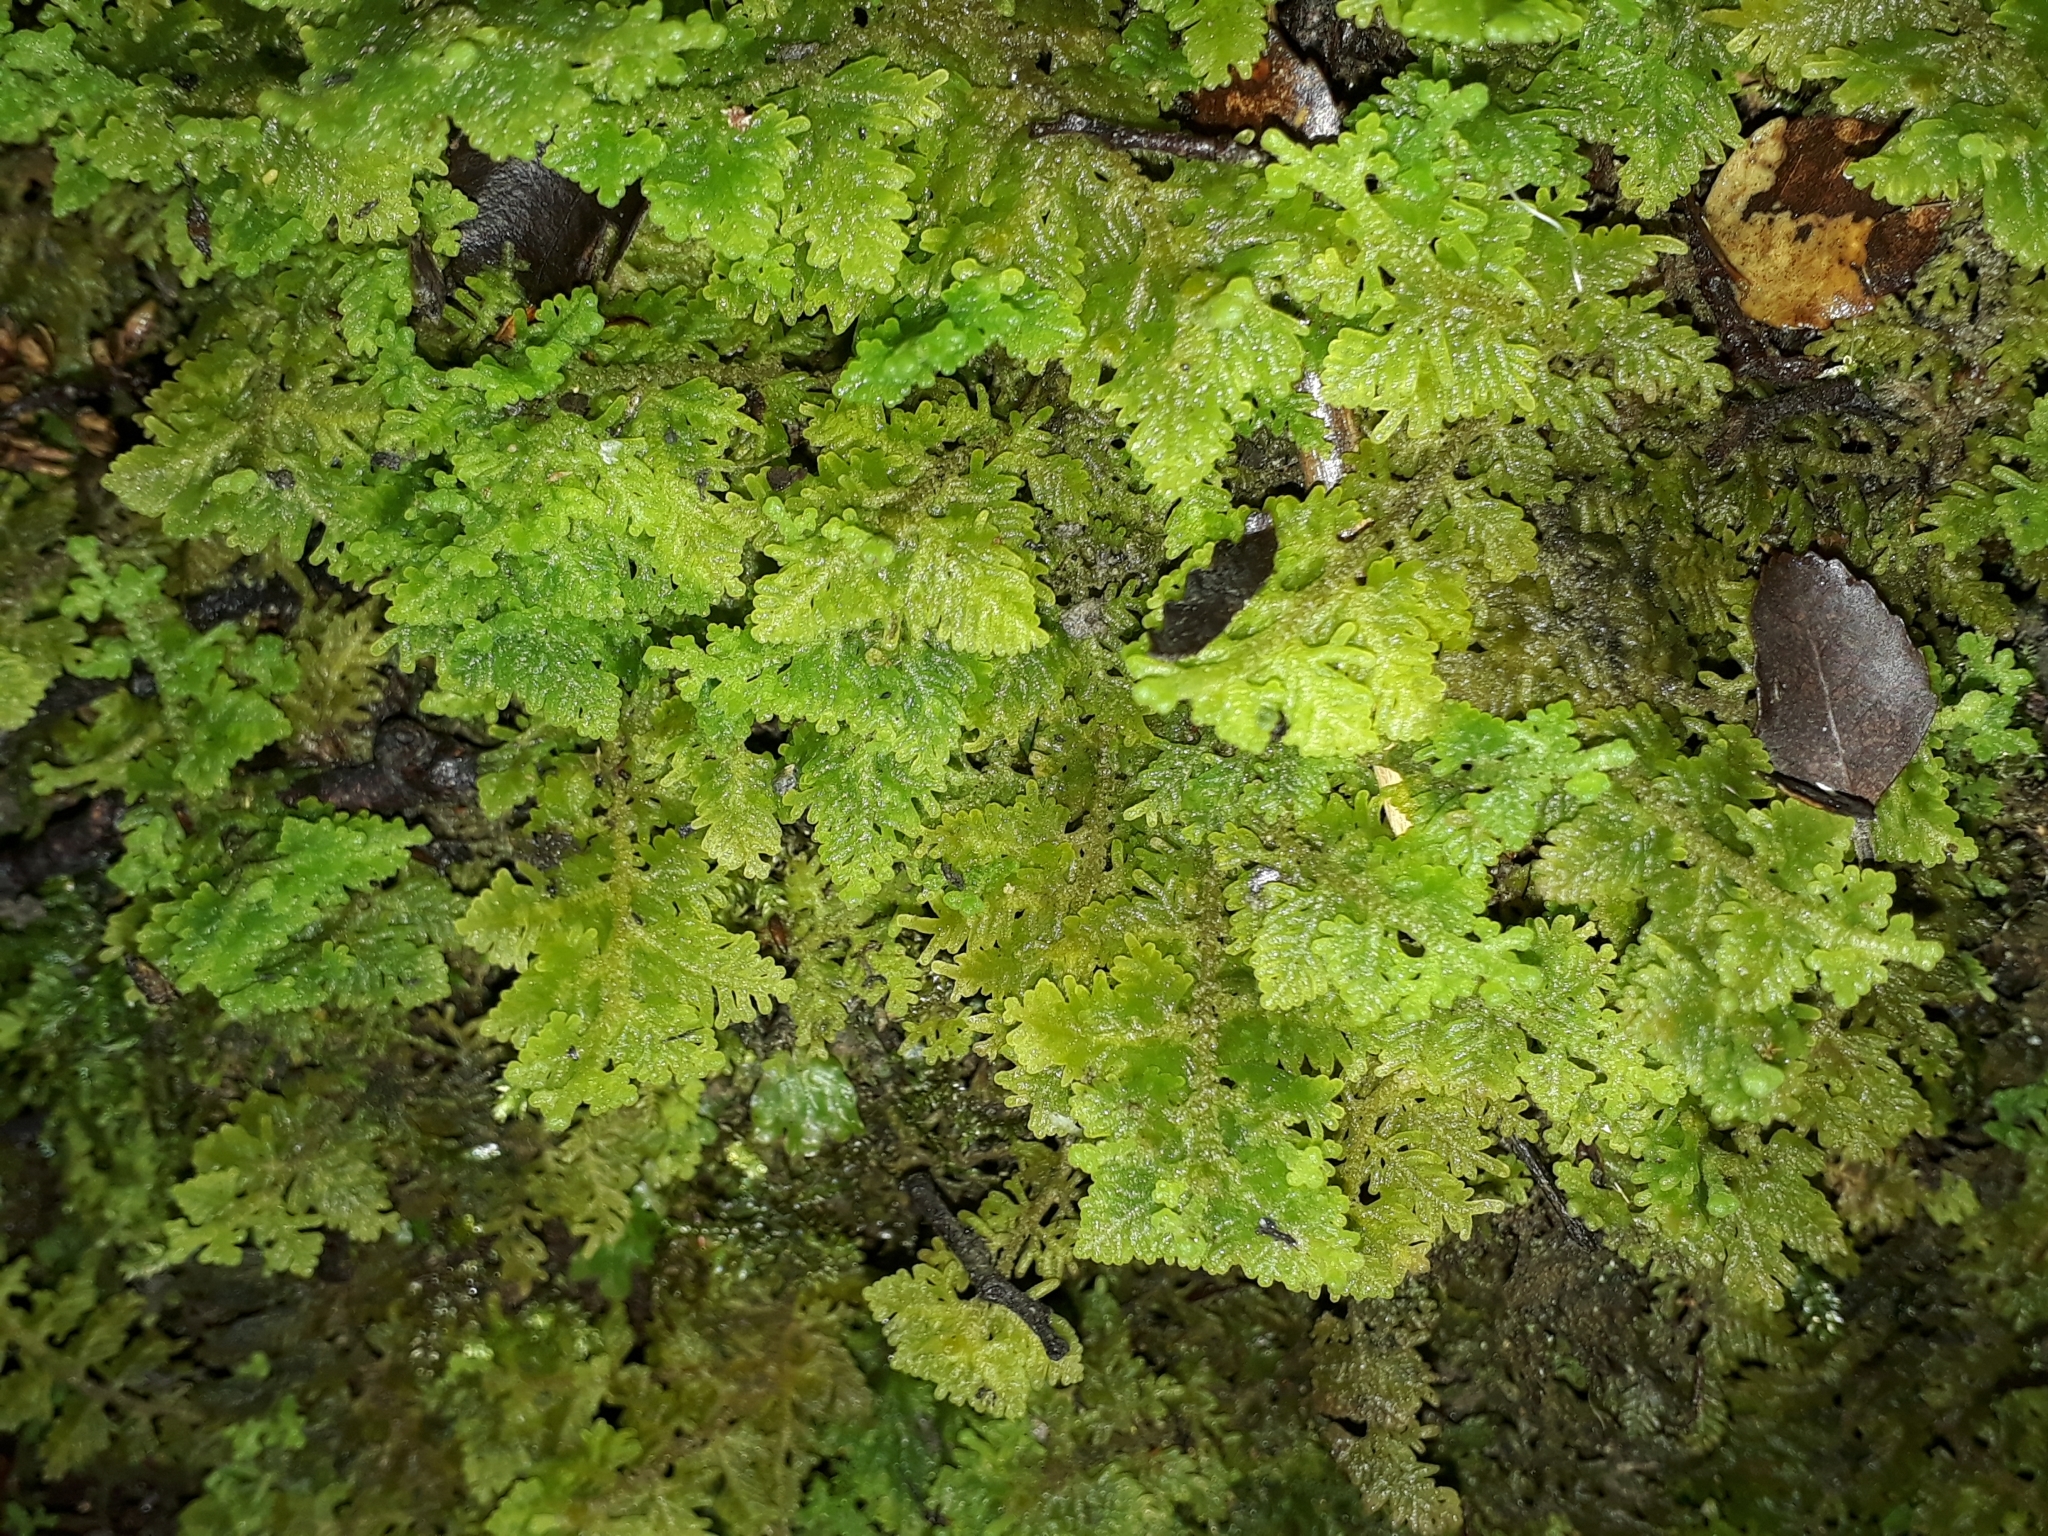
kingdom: Plantae
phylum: Marchantiophyta
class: Jungermanniopsida
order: Jungermanniales
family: Trichocoleaceae
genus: Trichocolea
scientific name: Trichocolea mollissima
